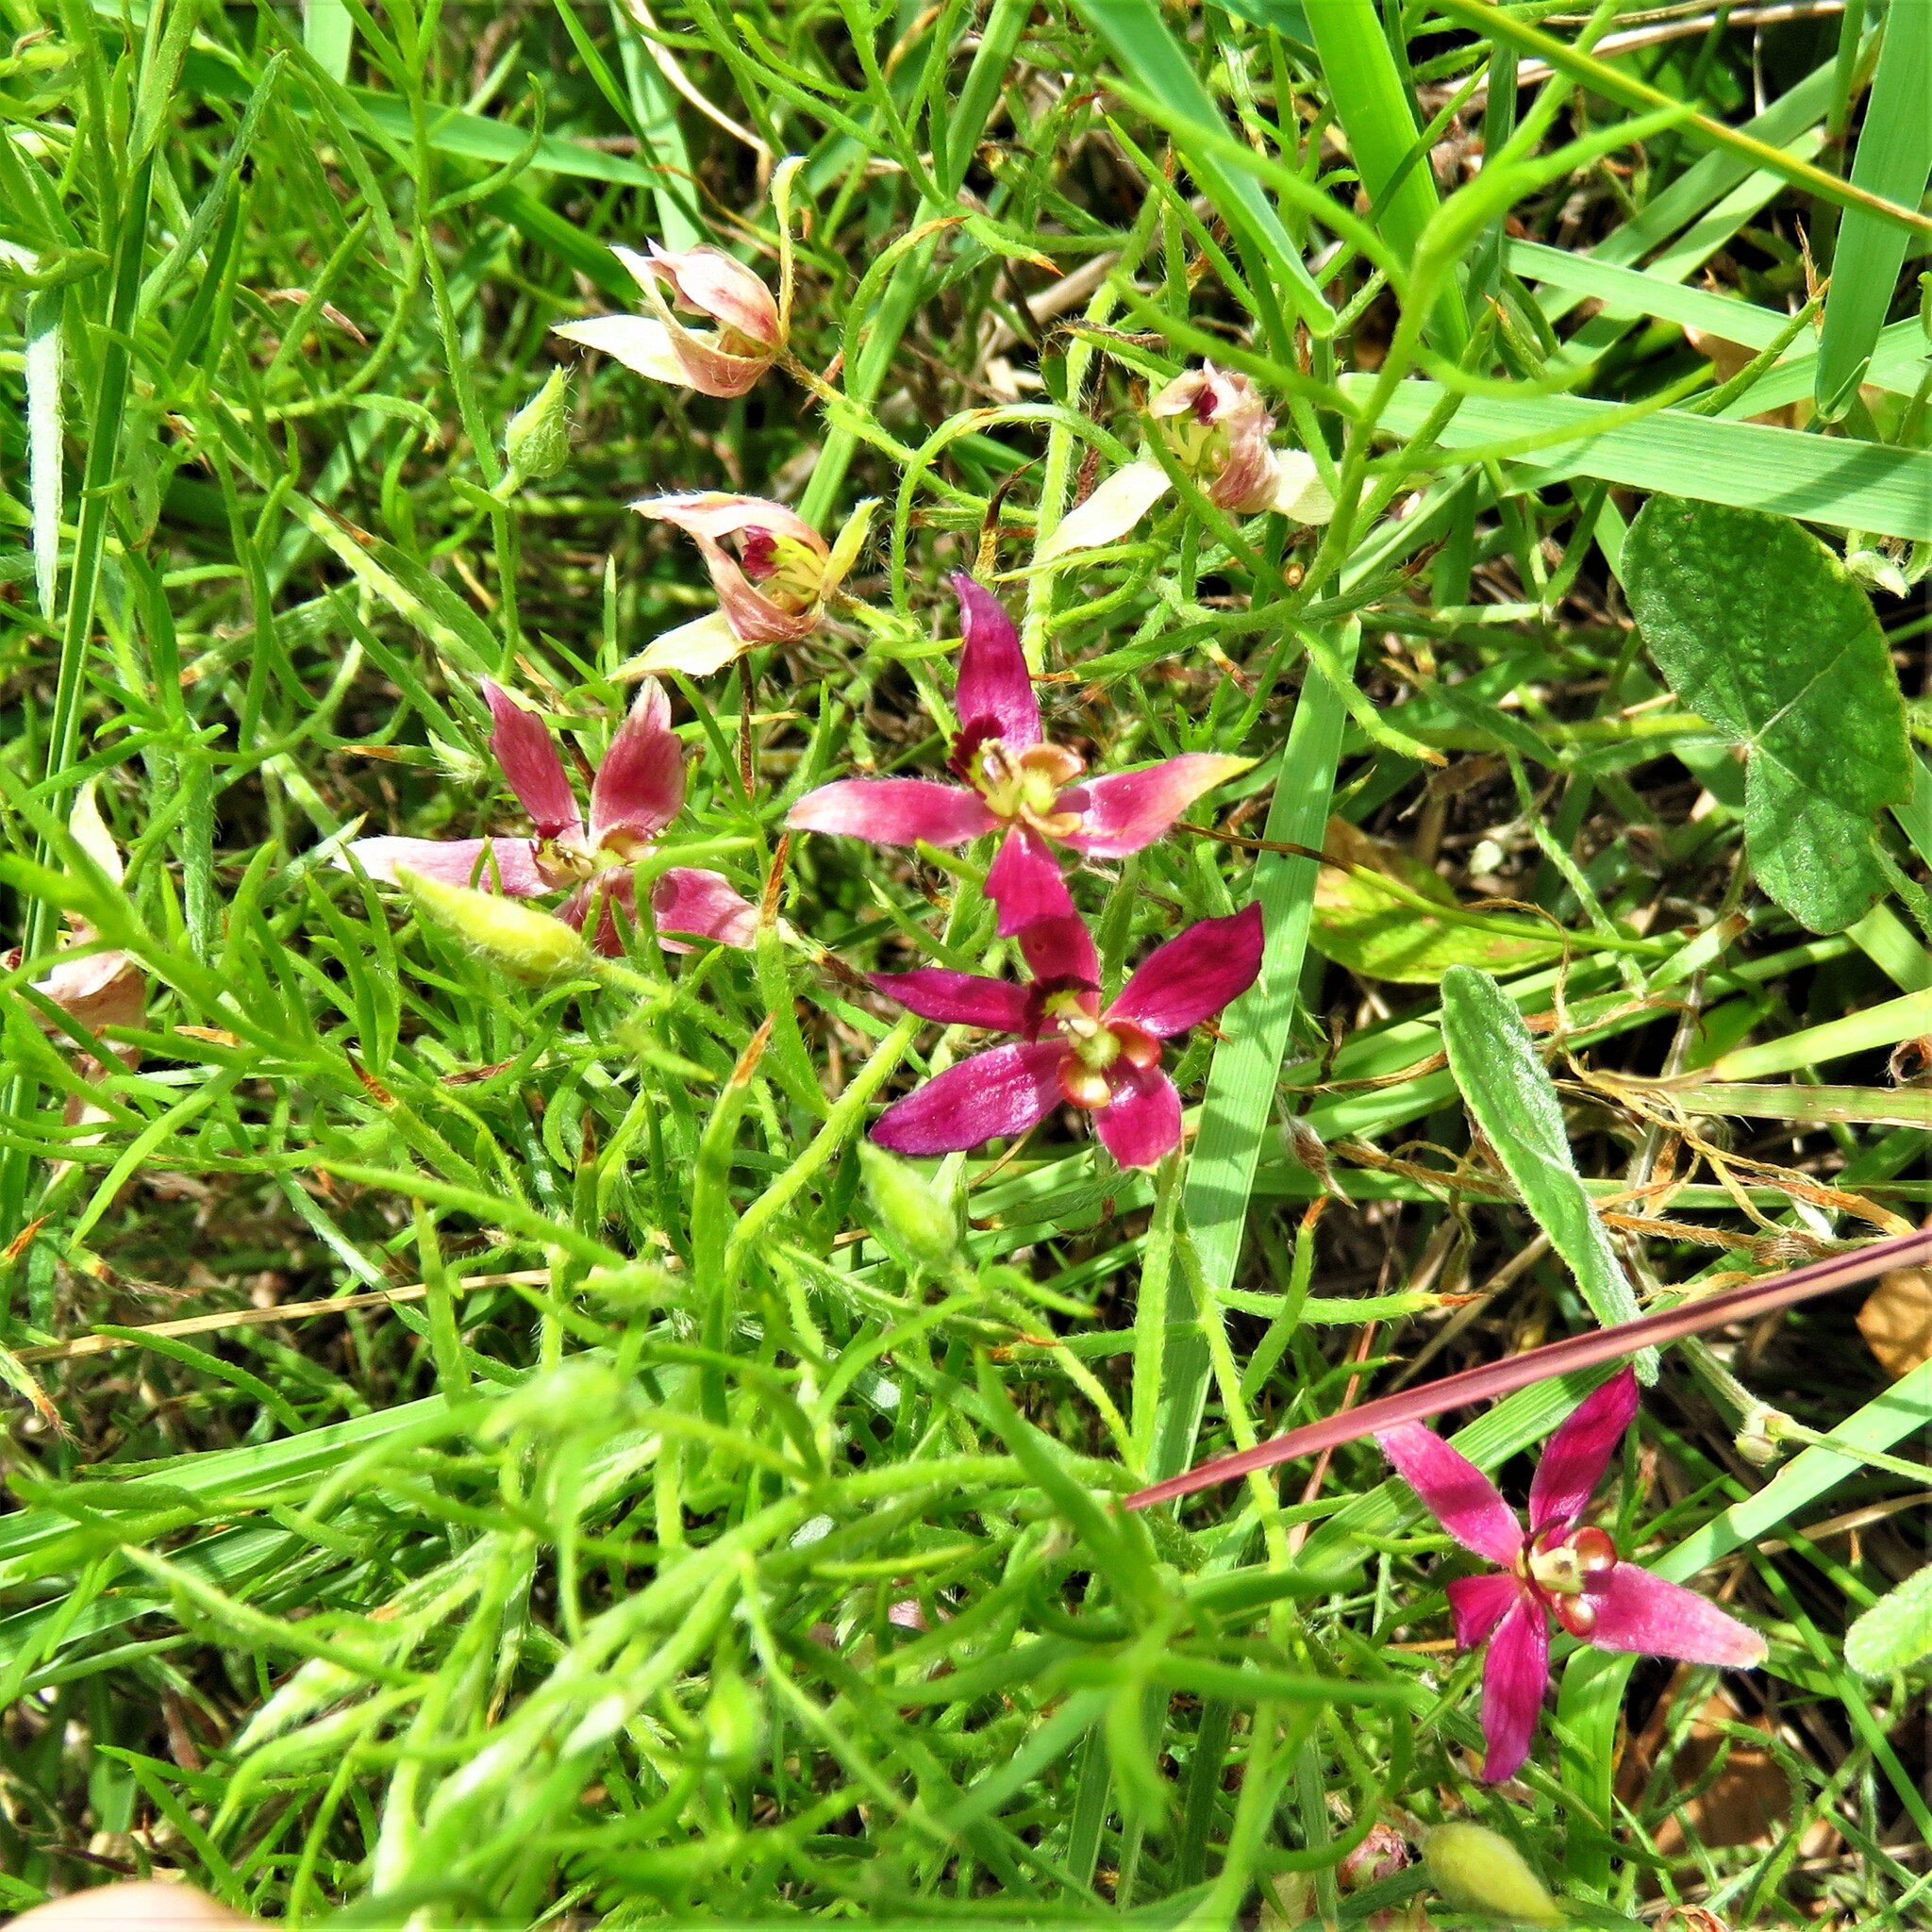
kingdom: Plantae
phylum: Tracheophyta
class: Magnoliopsida
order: Zygophyllales
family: Krameriaceae
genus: Krameria
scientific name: Krameria lanceolata
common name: Ratany
